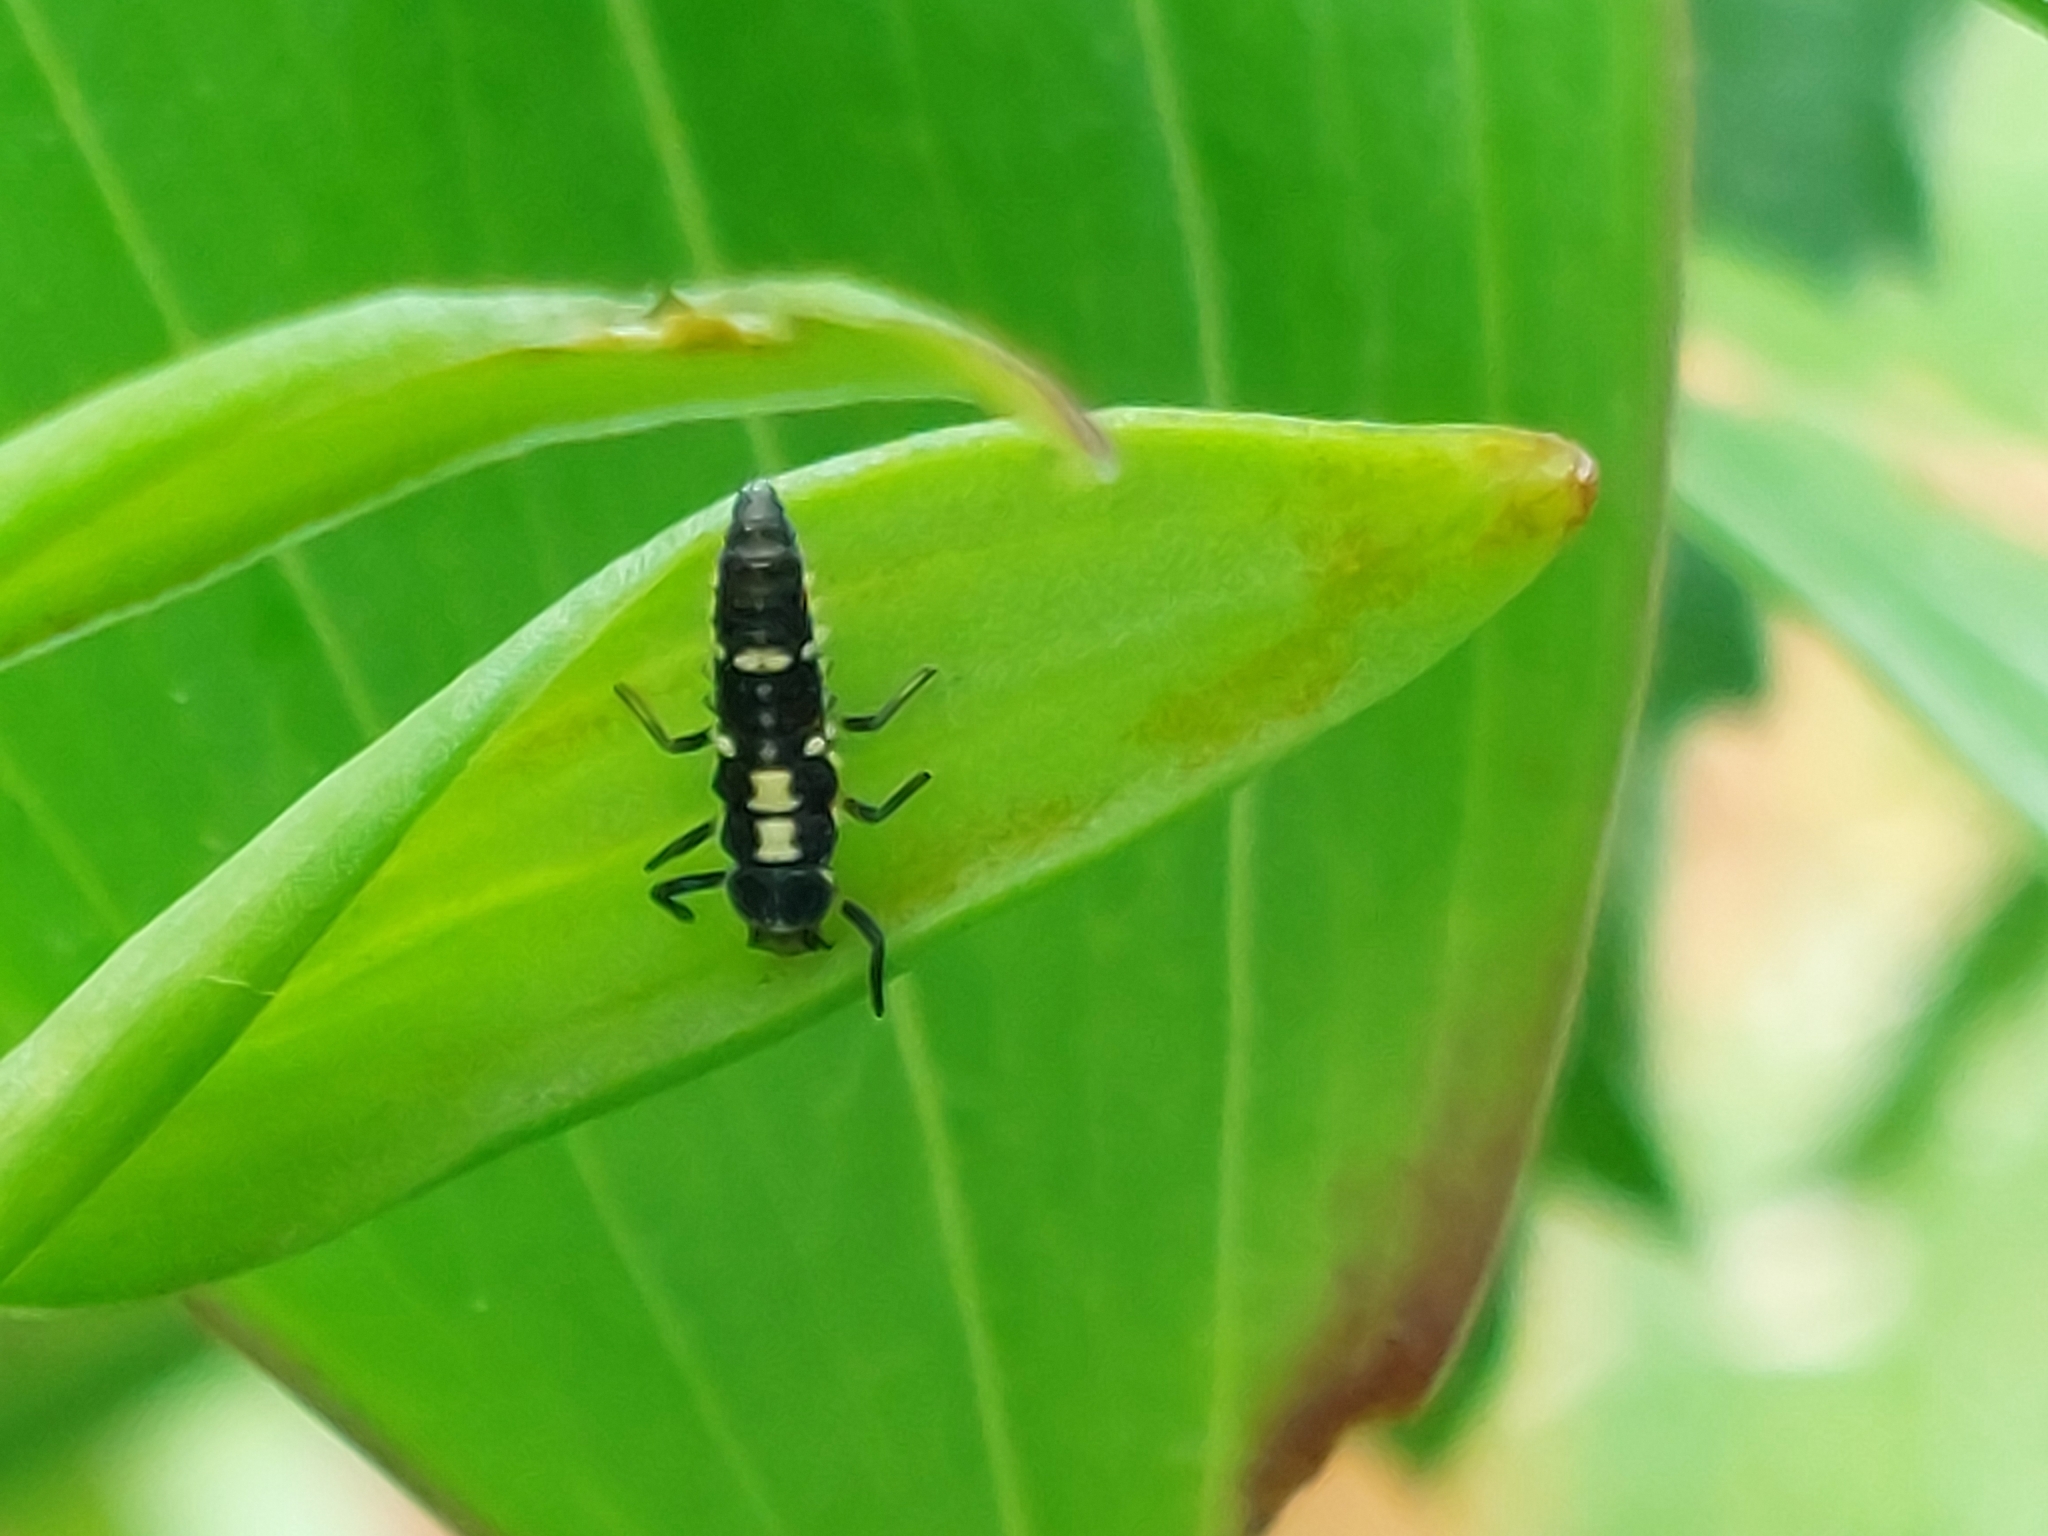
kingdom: Animalia
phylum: Arthropoda
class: Insecta
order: Coleoptera
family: Coccinellidae
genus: Propylaea
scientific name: Propylaea quatuordecimpunctata
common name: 14-spotted ladybird beetle
